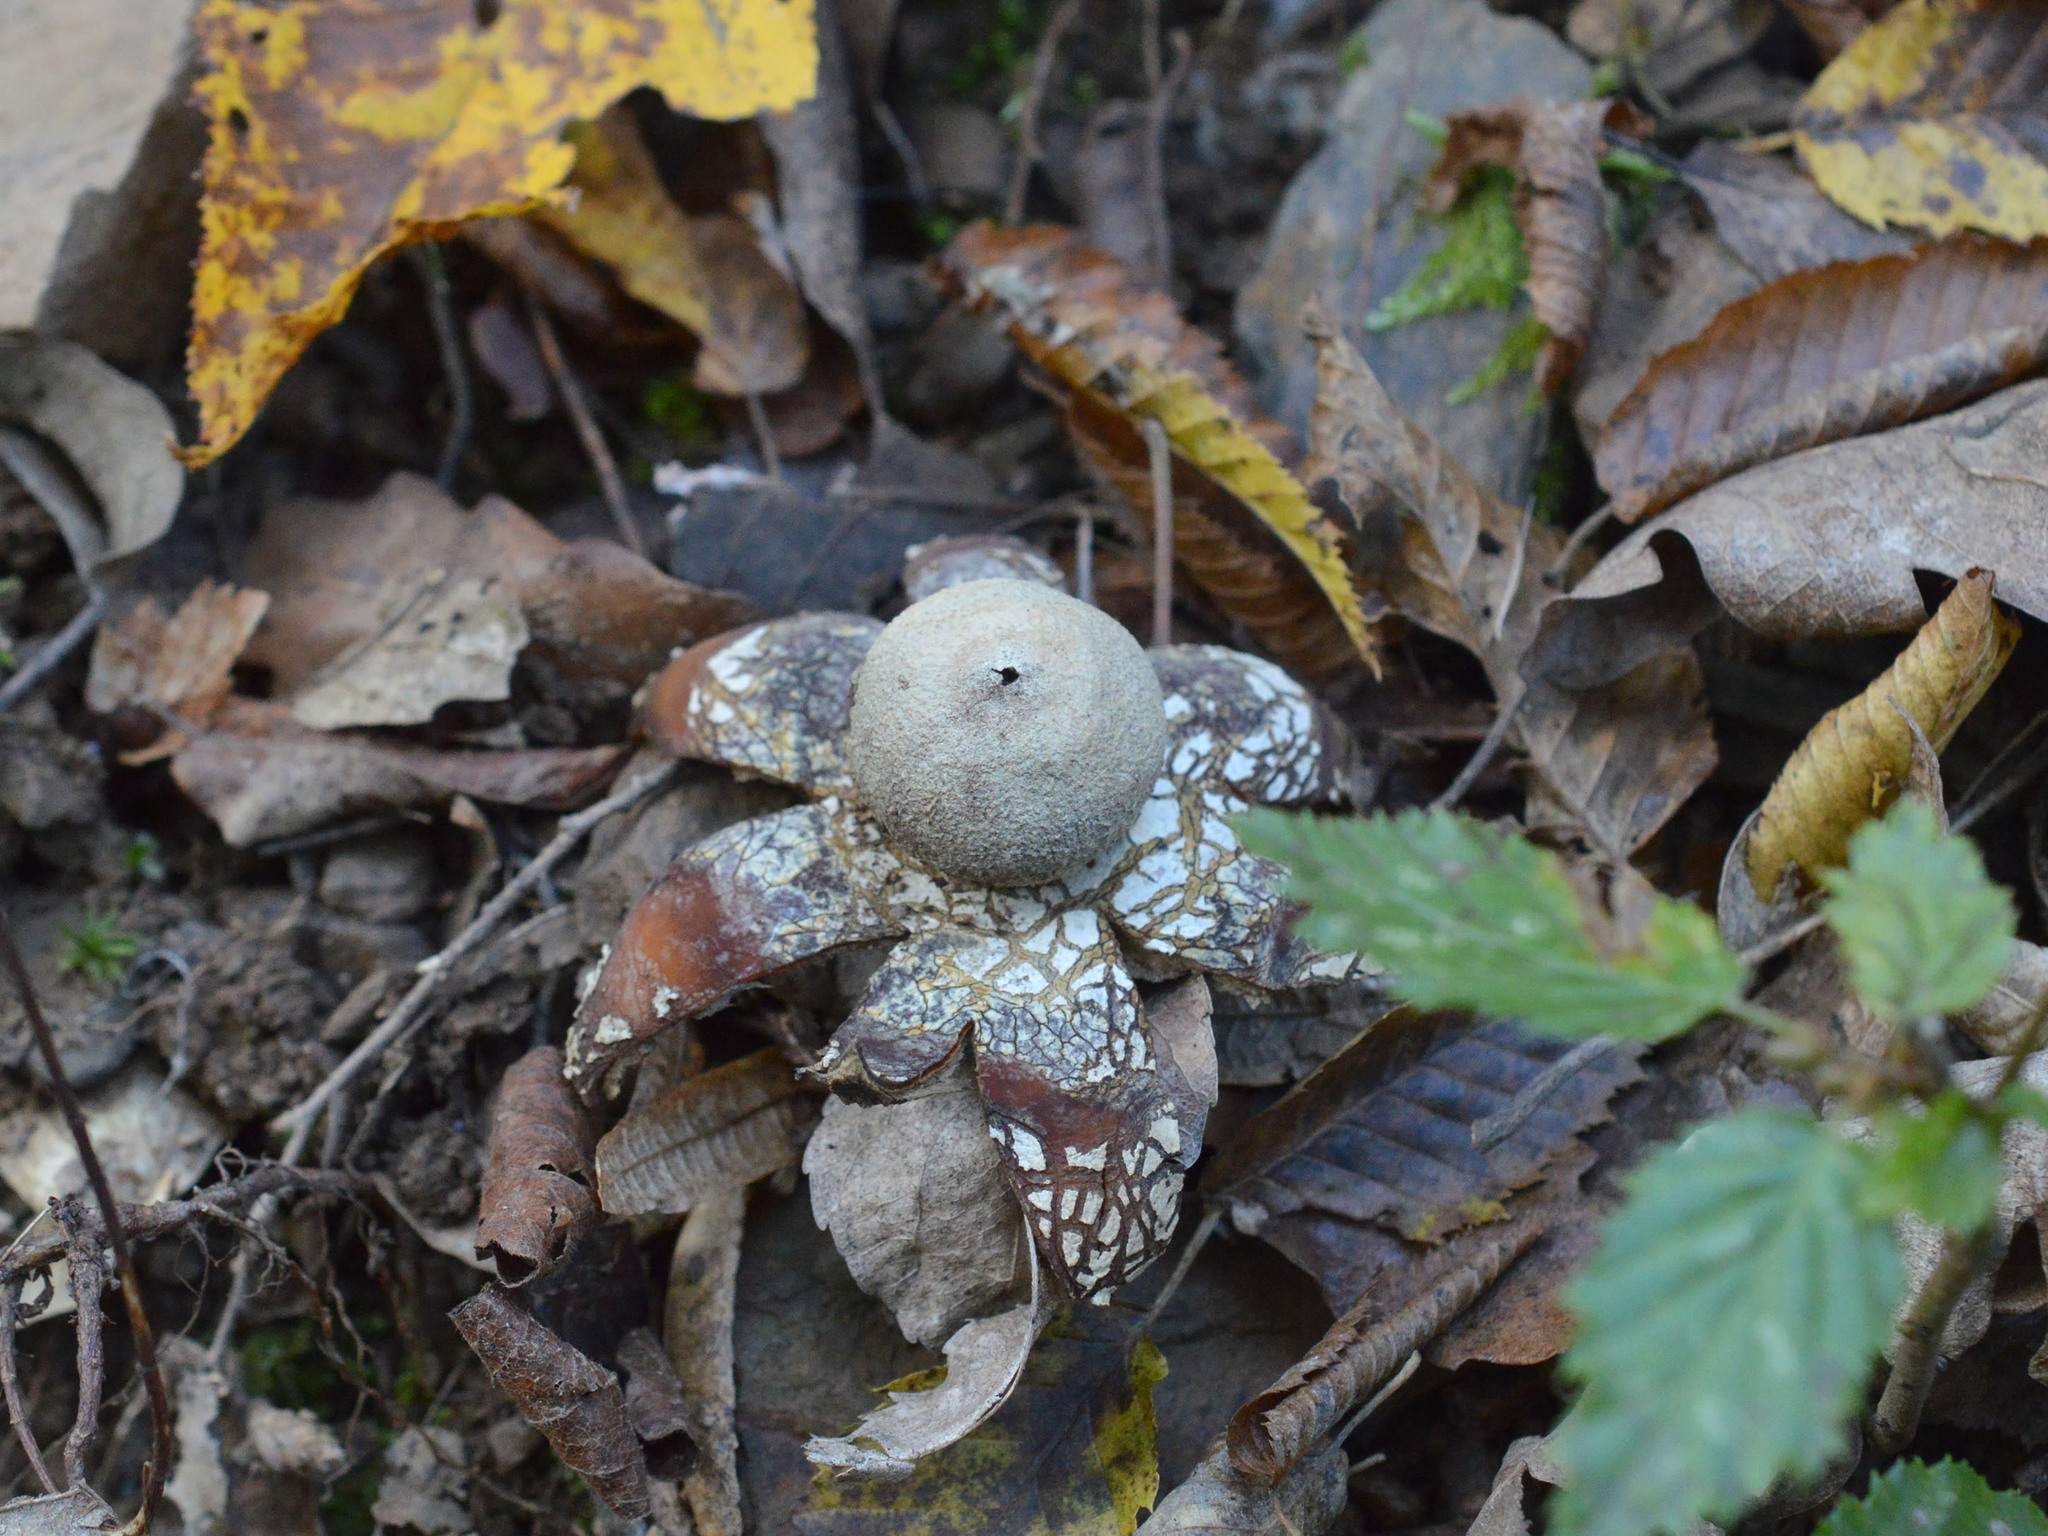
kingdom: Fungi
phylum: Basidiomycota
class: Agaricomycetes
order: Boletales
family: Diplocystidiaceae
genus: Astraeus
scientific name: Astraeus hygrometricus
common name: Barometer earthstar
